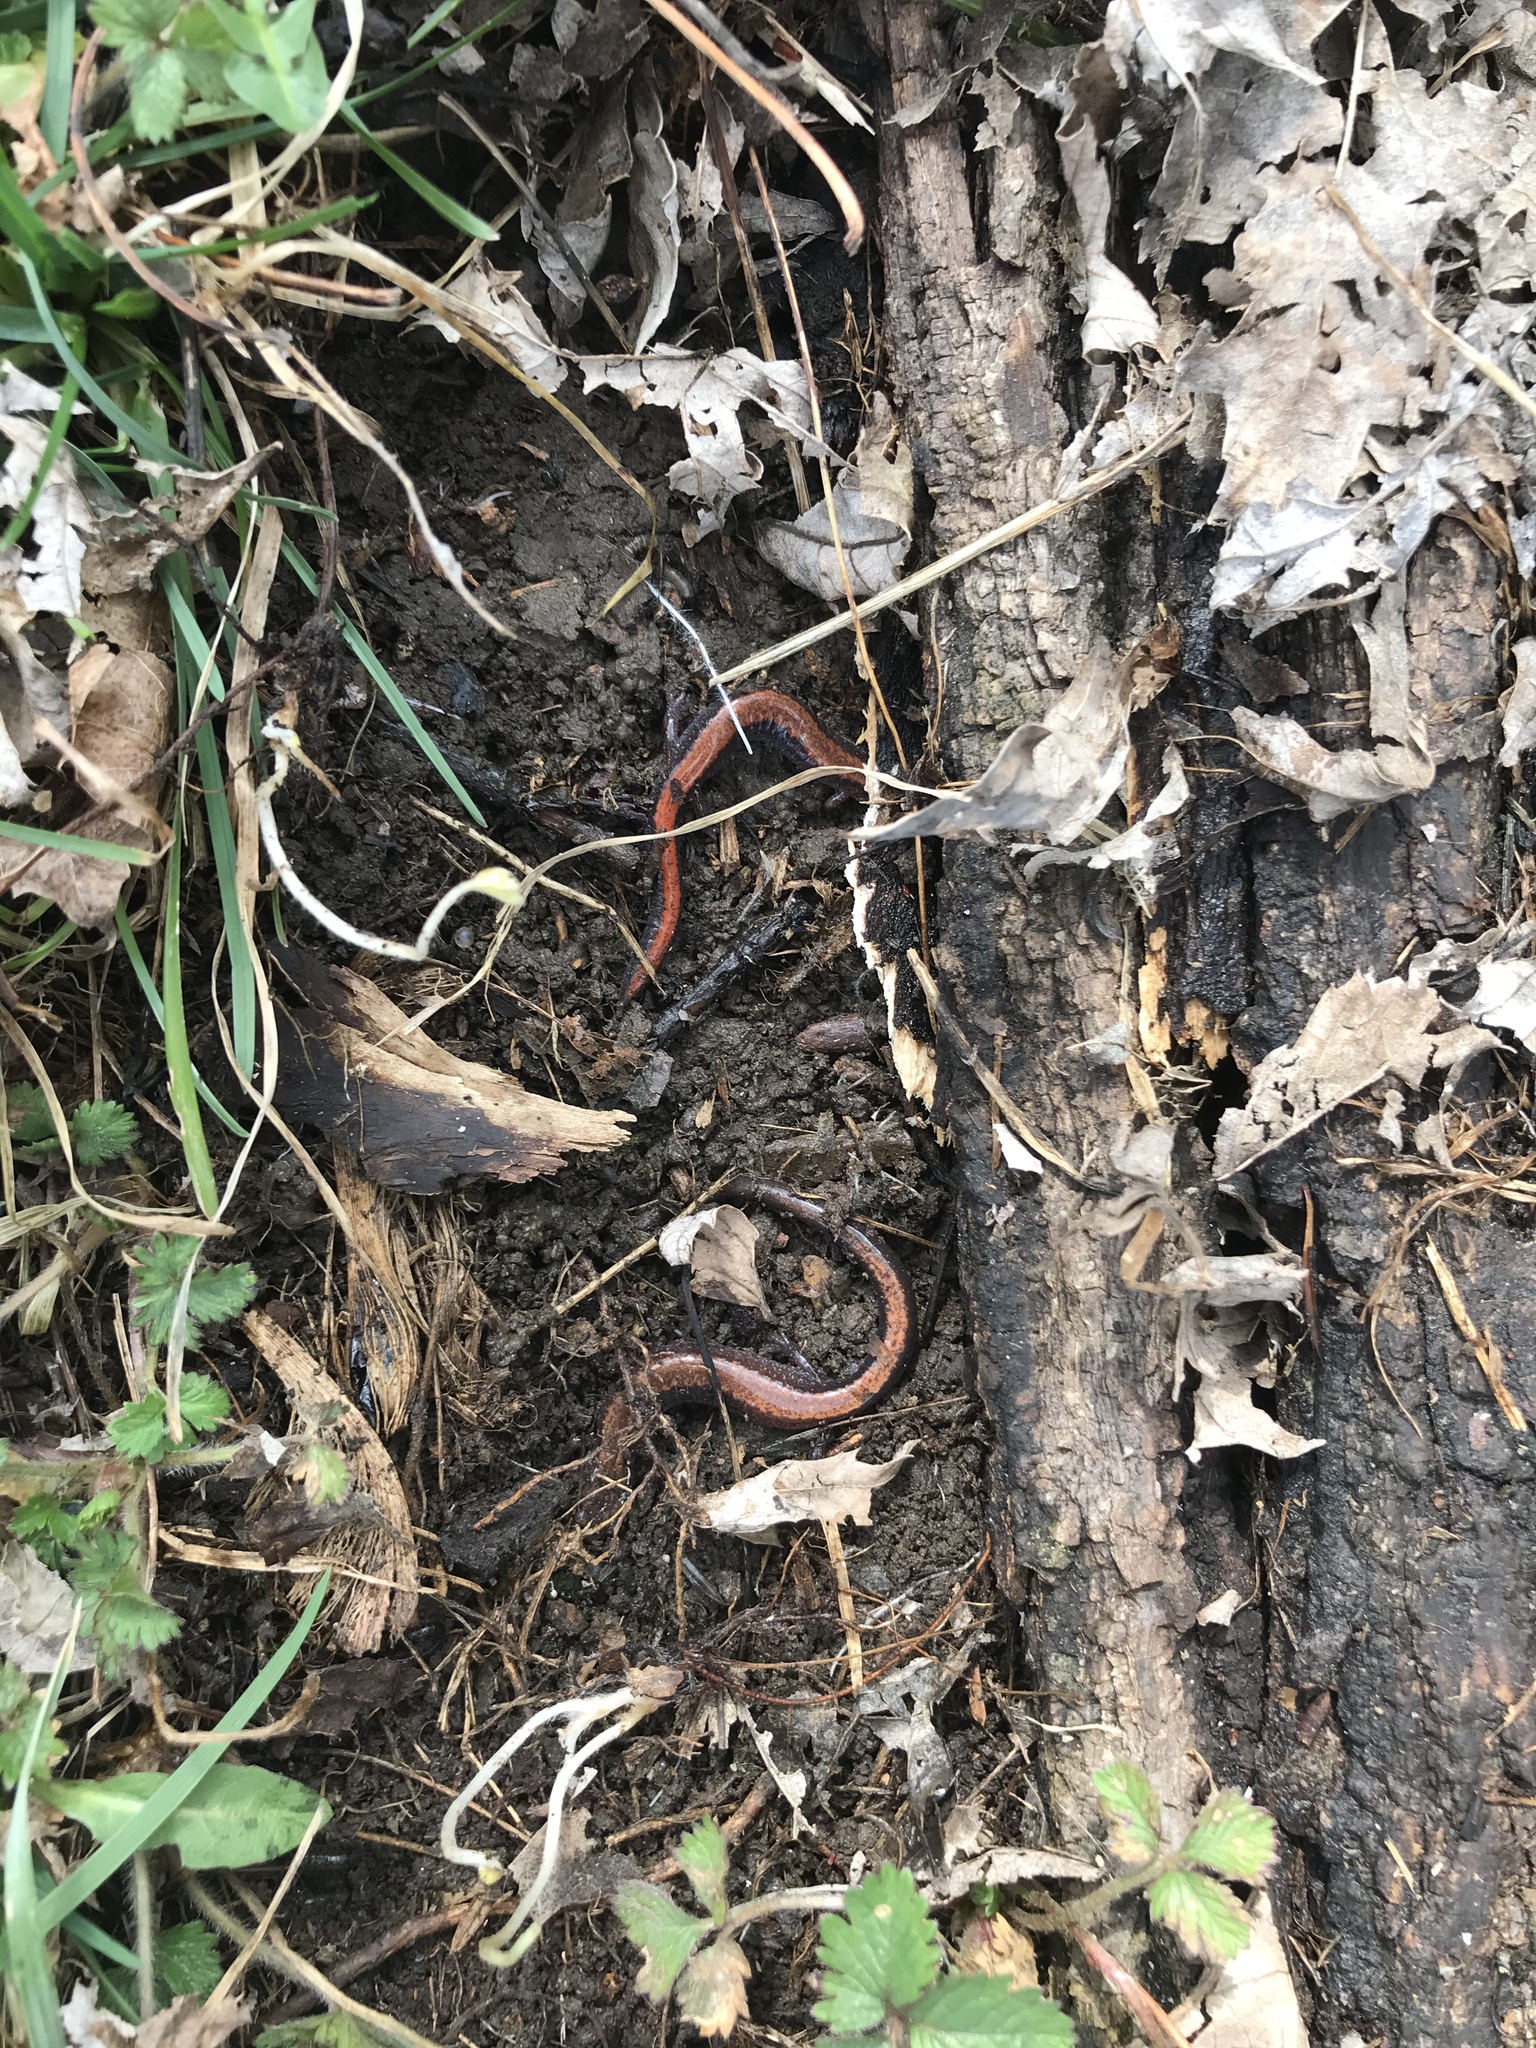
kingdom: Animalia
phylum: Chordata
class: Amphibia
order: Caudata
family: Plethodontidae
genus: Plethodon
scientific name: Plethodon cinereus
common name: Redback salamander
